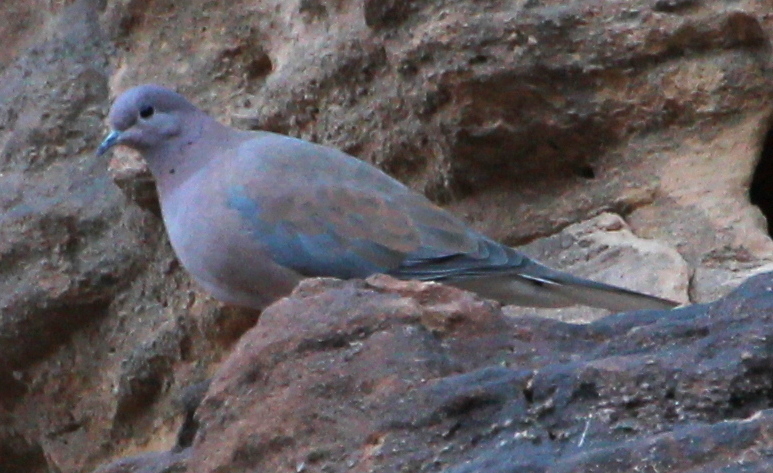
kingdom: Animalia
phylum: Chordata
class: Aves
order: Columbiformes
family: Columbidae
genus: Spilopelia
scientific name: Spilopelia senegalensis
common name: Laughing dove
